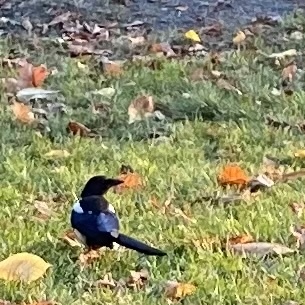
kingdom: Animalia
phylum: Chordata
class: Aves
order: Passeriformes
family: Corvidae
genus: Pica
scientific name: Pica pica
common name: Eurasian magpie
